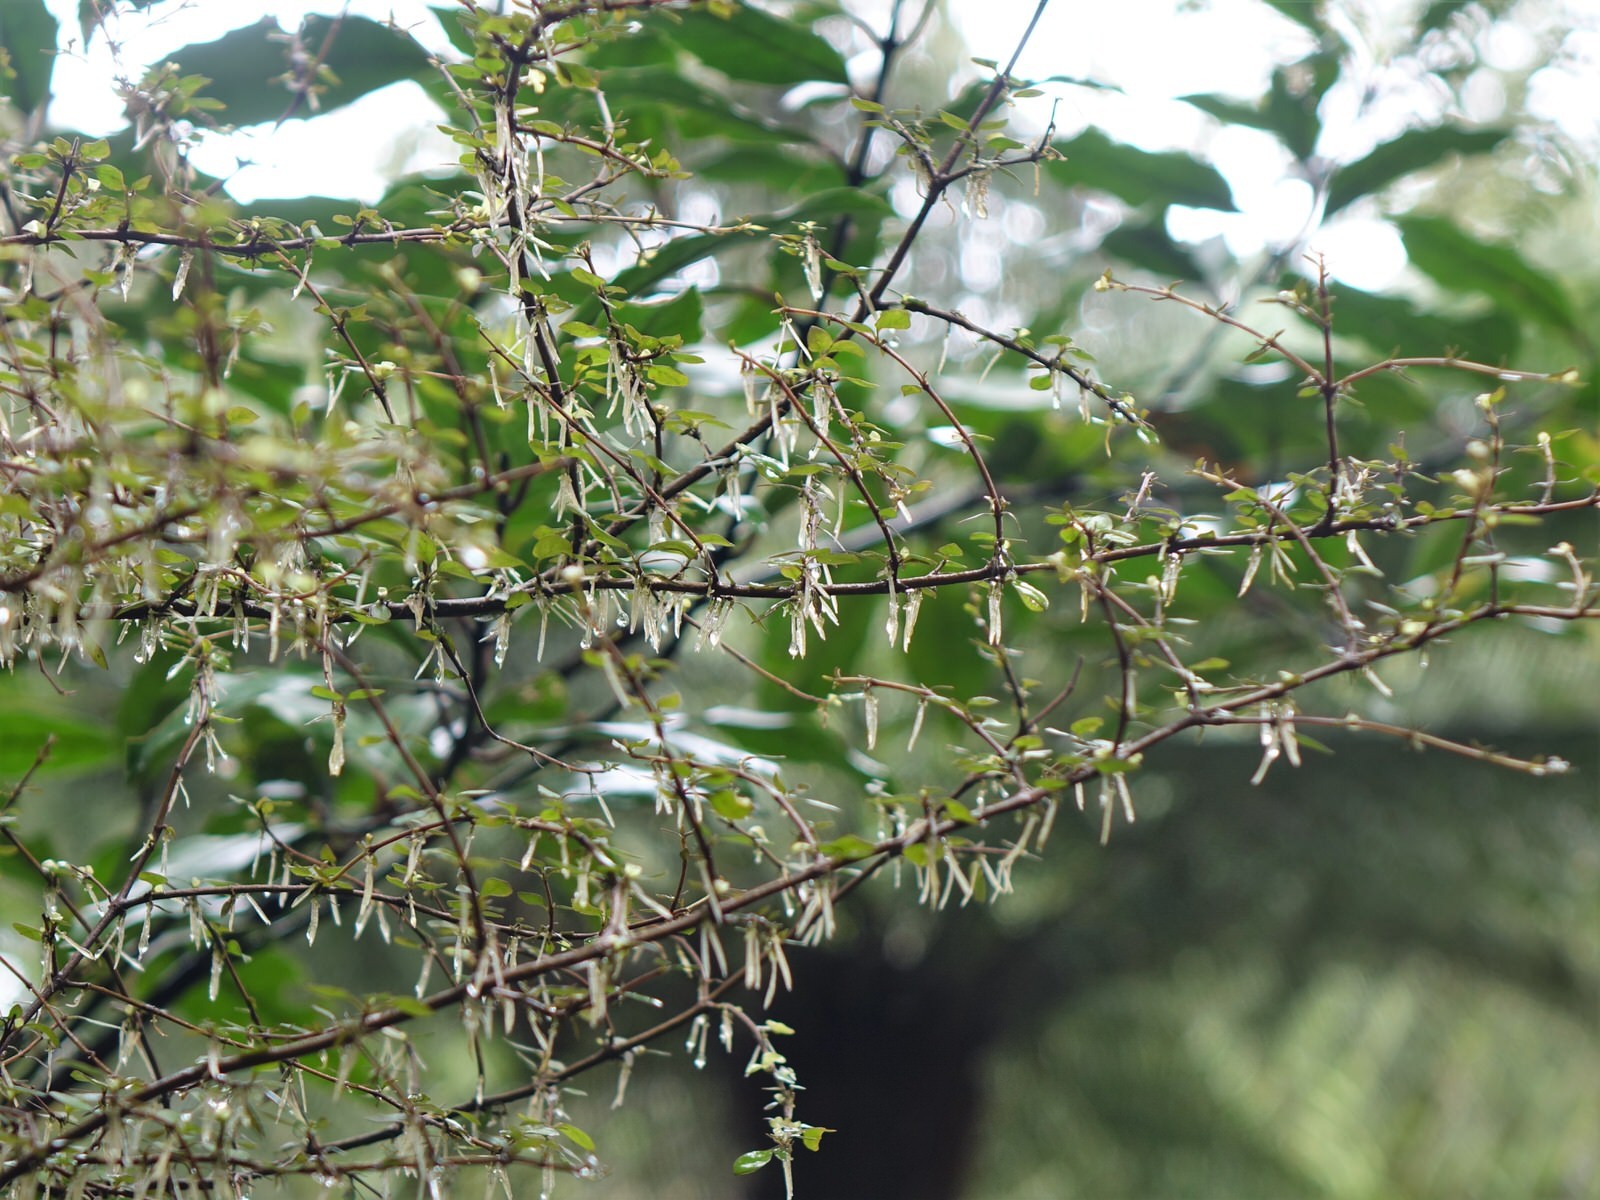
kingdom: Plantae
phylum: Tracheophyta
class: Magnoliopsida
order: Gentianales
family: Rubiaceae
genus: Coprosma
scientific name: Coprosma rhamnoides
